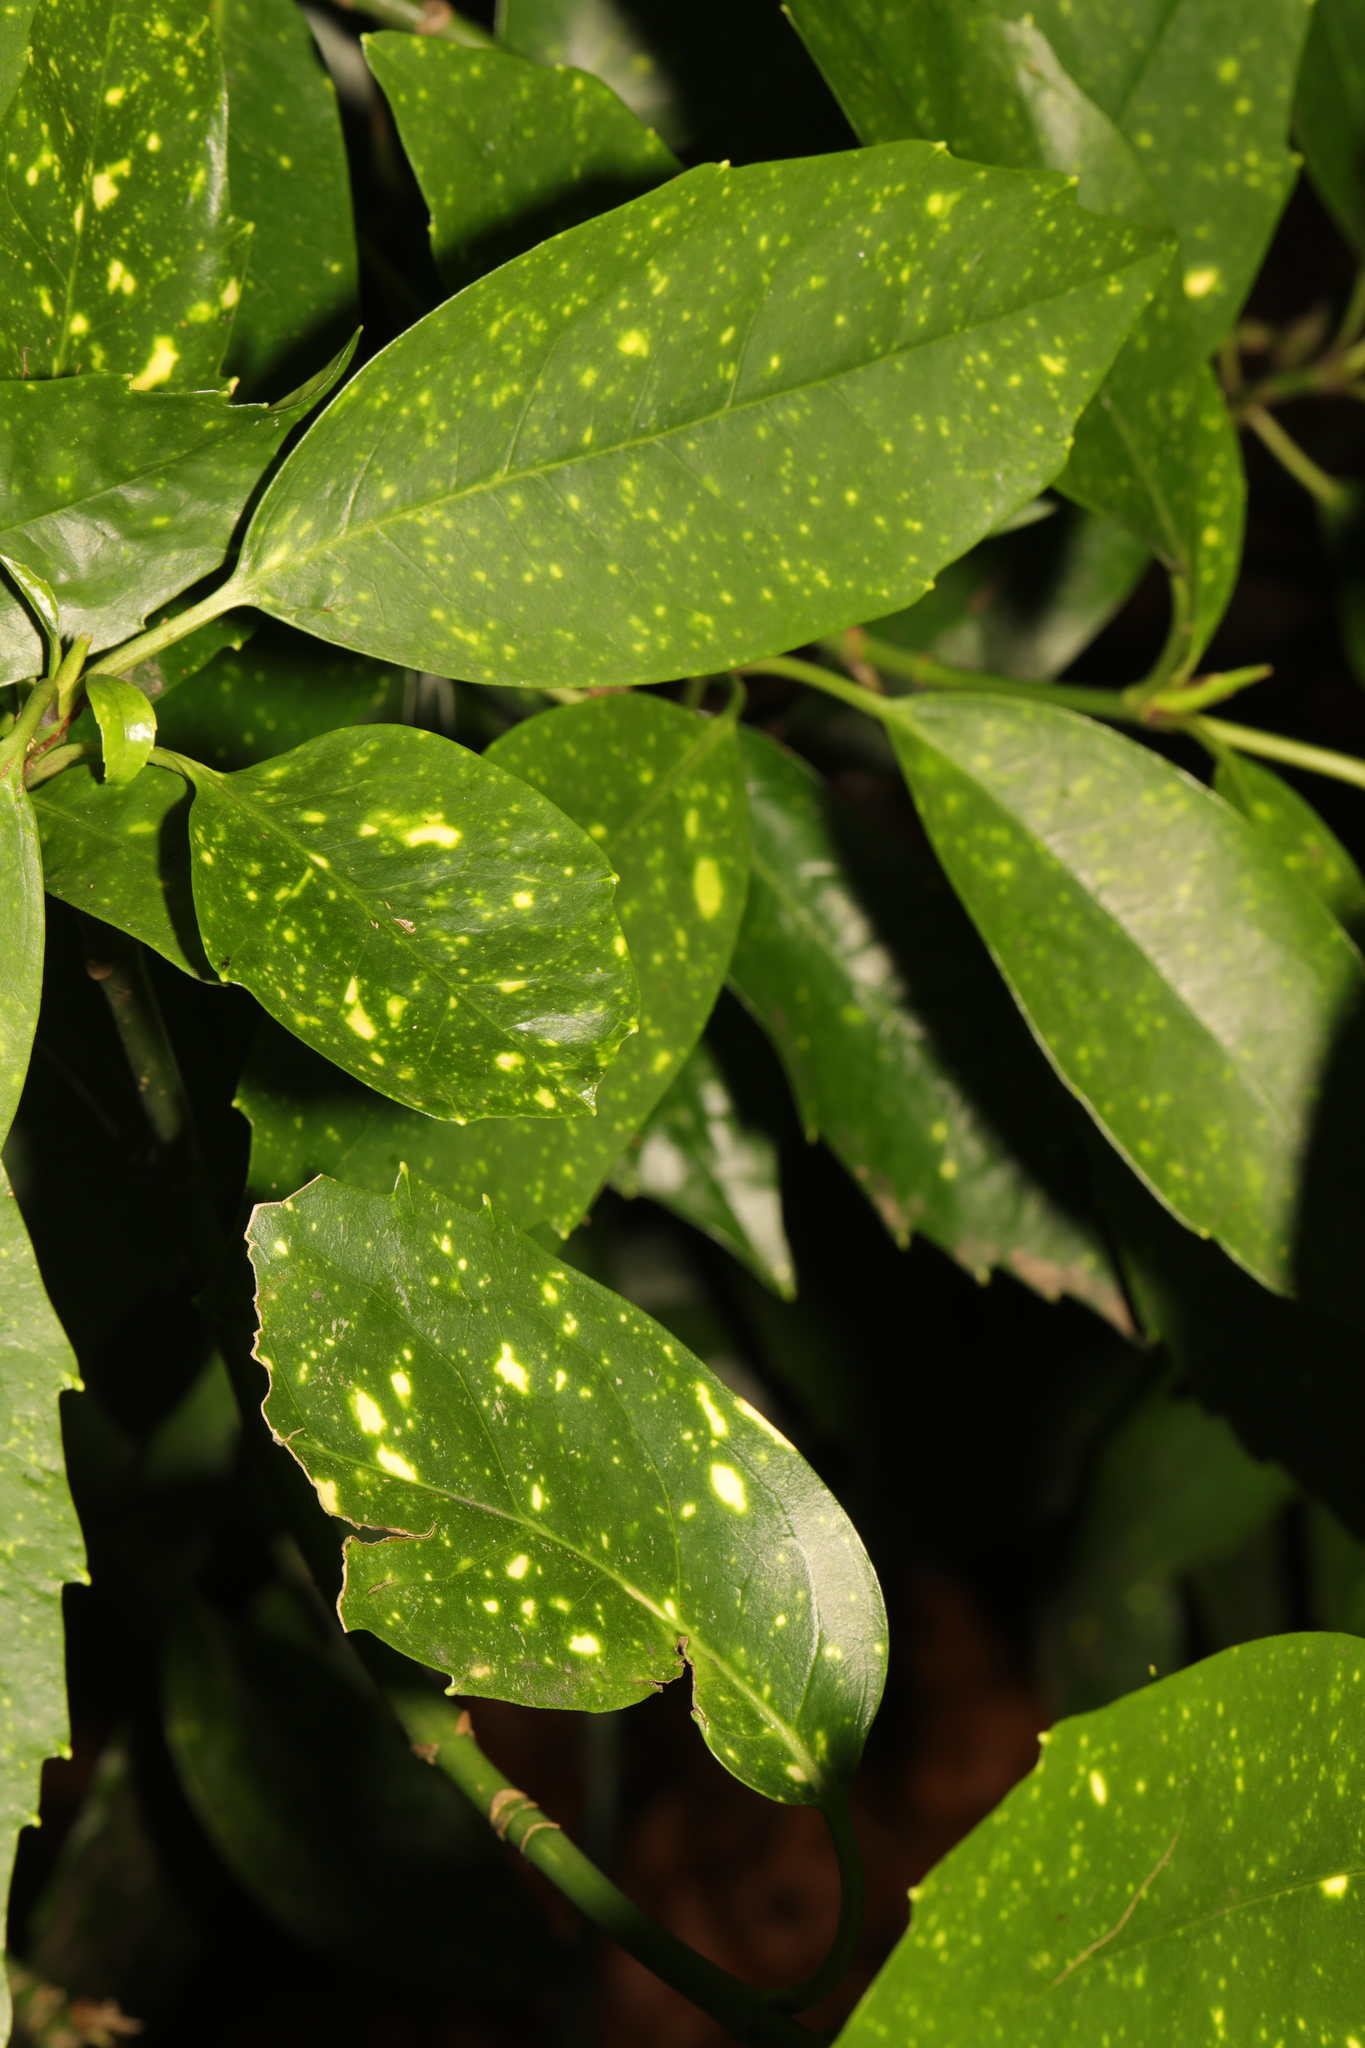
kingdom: Plantae
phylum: Tracheophyta
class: Magnoliopsida
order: Garryales
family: Garryaceae
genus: Aucuba
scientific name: Aucuba japonica
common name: Spotted-laurel
